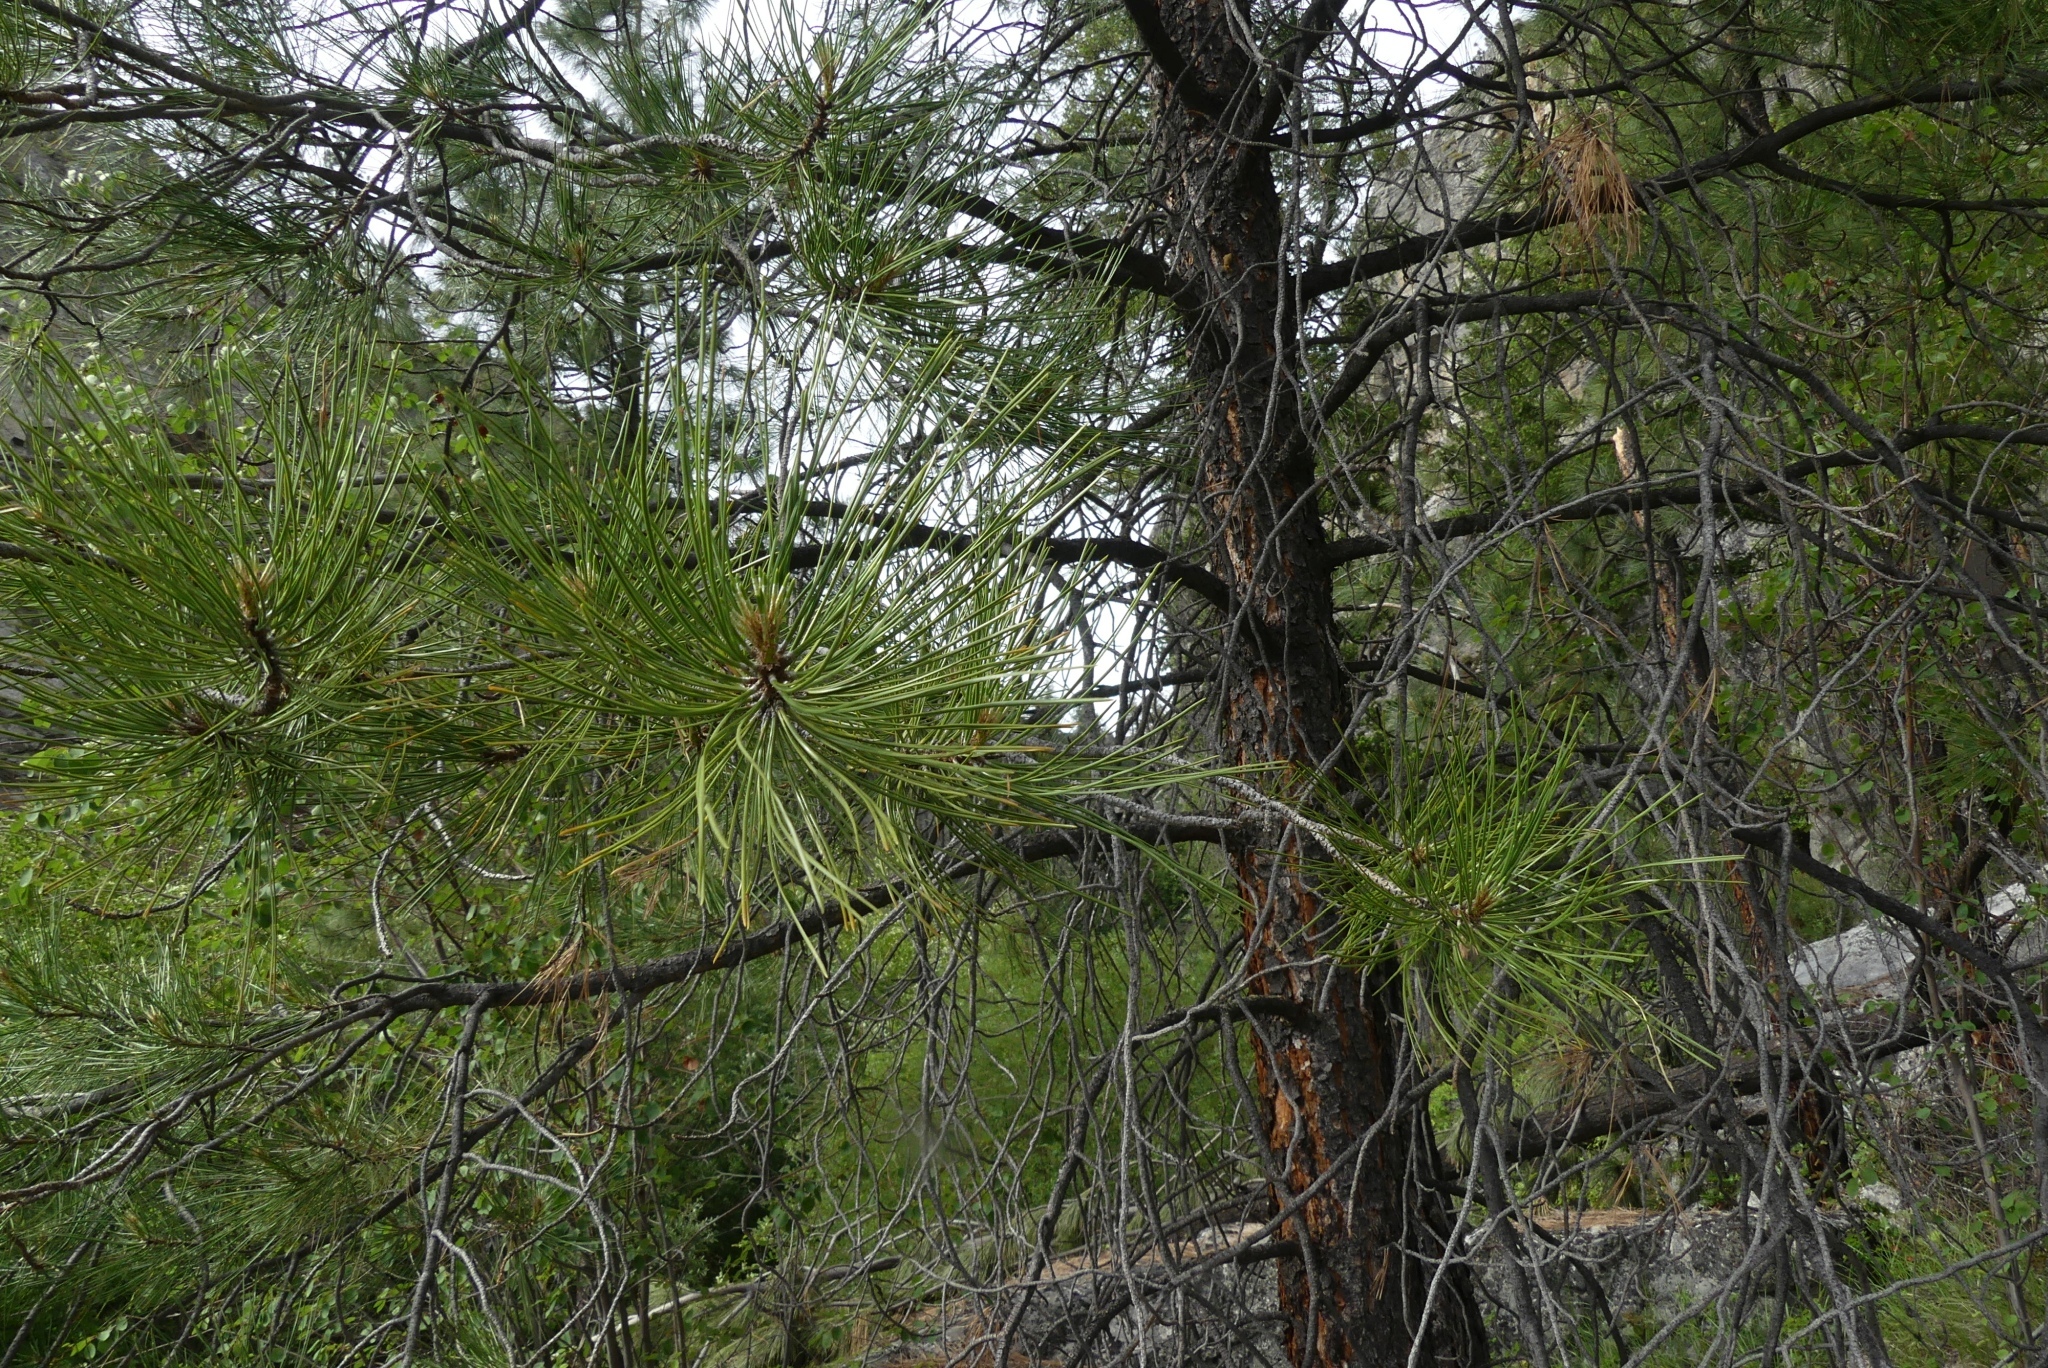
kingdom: Plantae
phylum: Tracheophyta
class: Pinopsida
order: Pinales
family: Pinaceae
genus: Pinus
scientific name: Pinus ponderosa
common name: Western yellow-pine
